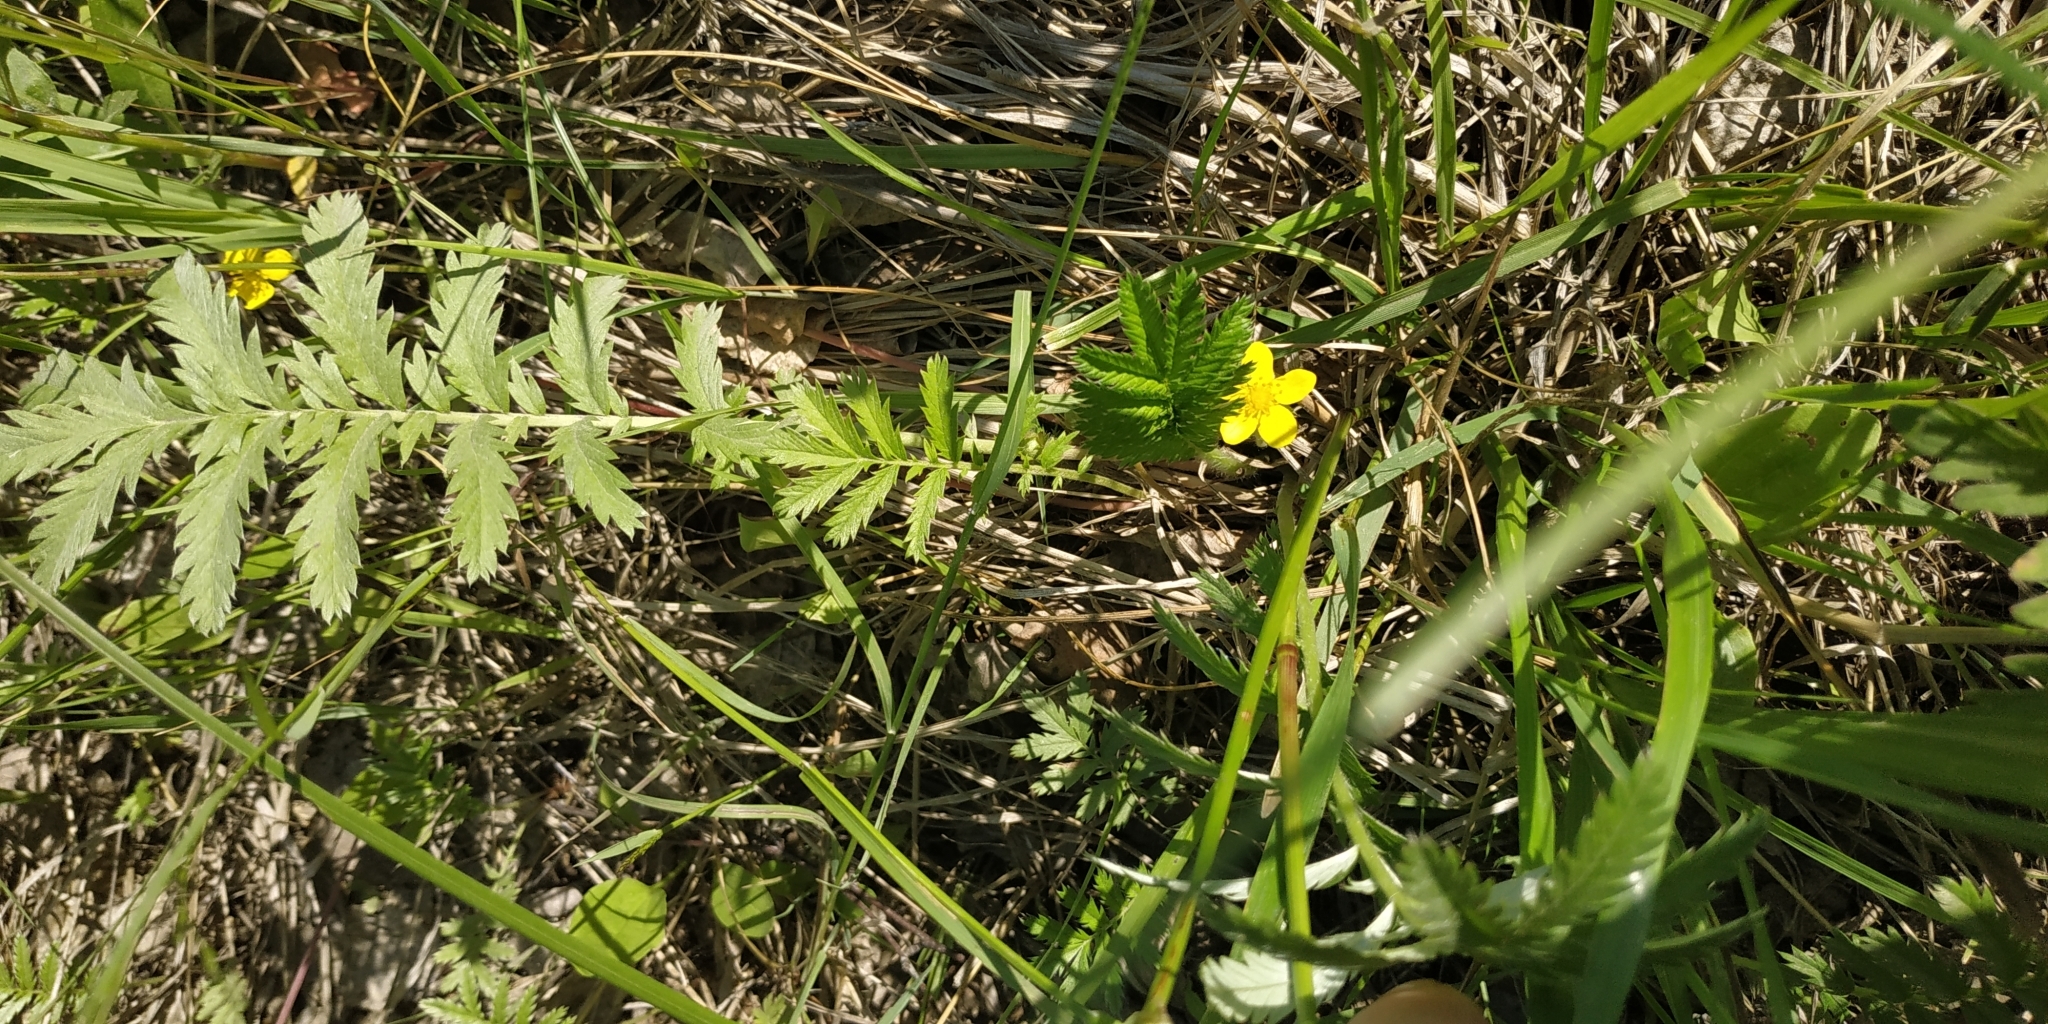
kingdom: Plantae
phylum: Tracheophyta
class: Magnoliopsida
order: Rosales
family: Rosaceae
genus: Argentina
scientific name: Argentina anserina
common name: Common silverweed
